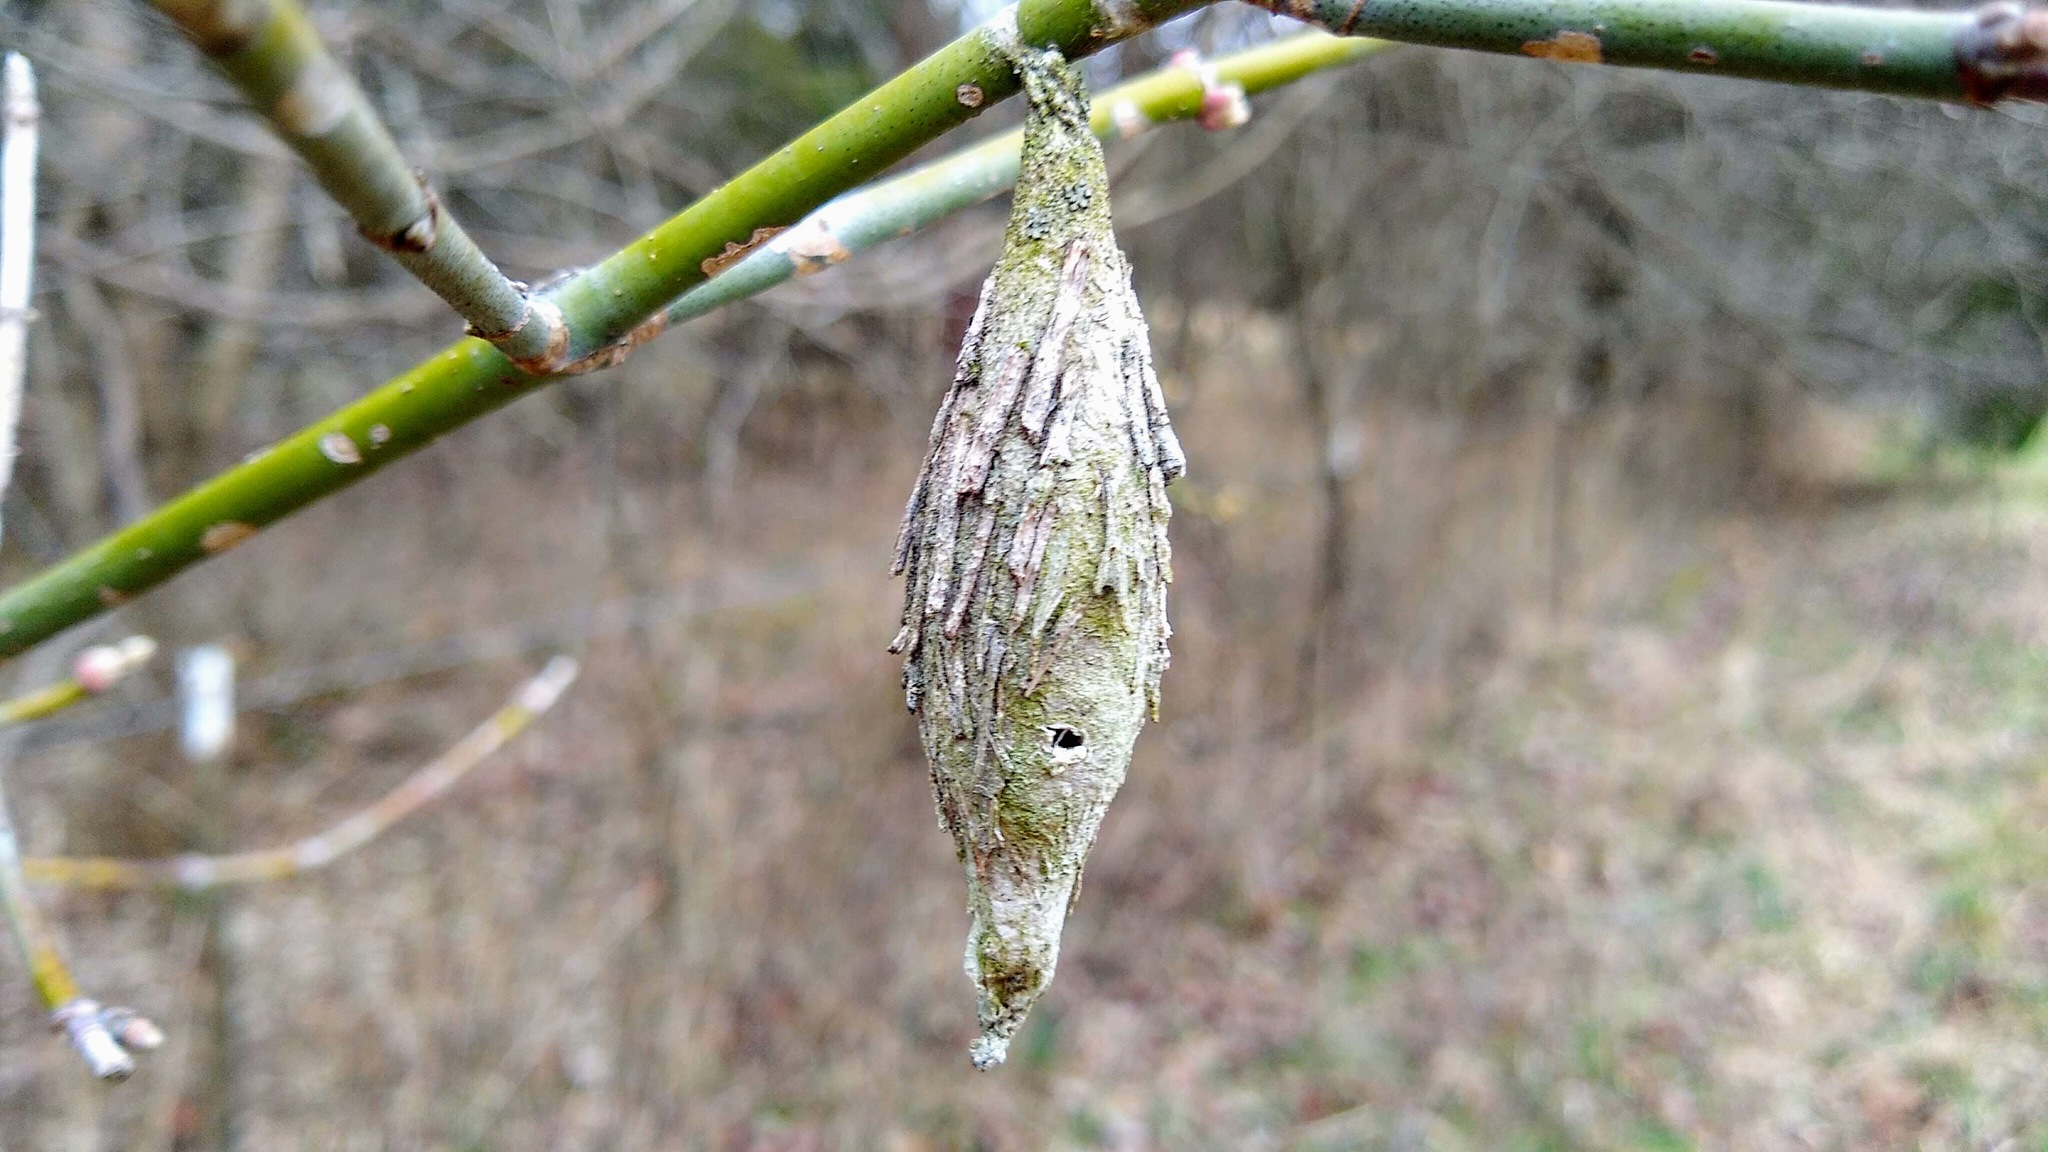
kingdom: Animalia
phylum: Arthropoda
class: Insecta
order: Lepidoptera
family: Psychidae
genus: Thyridopteryx
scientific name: Thyridopteryx ephemeraeformis
